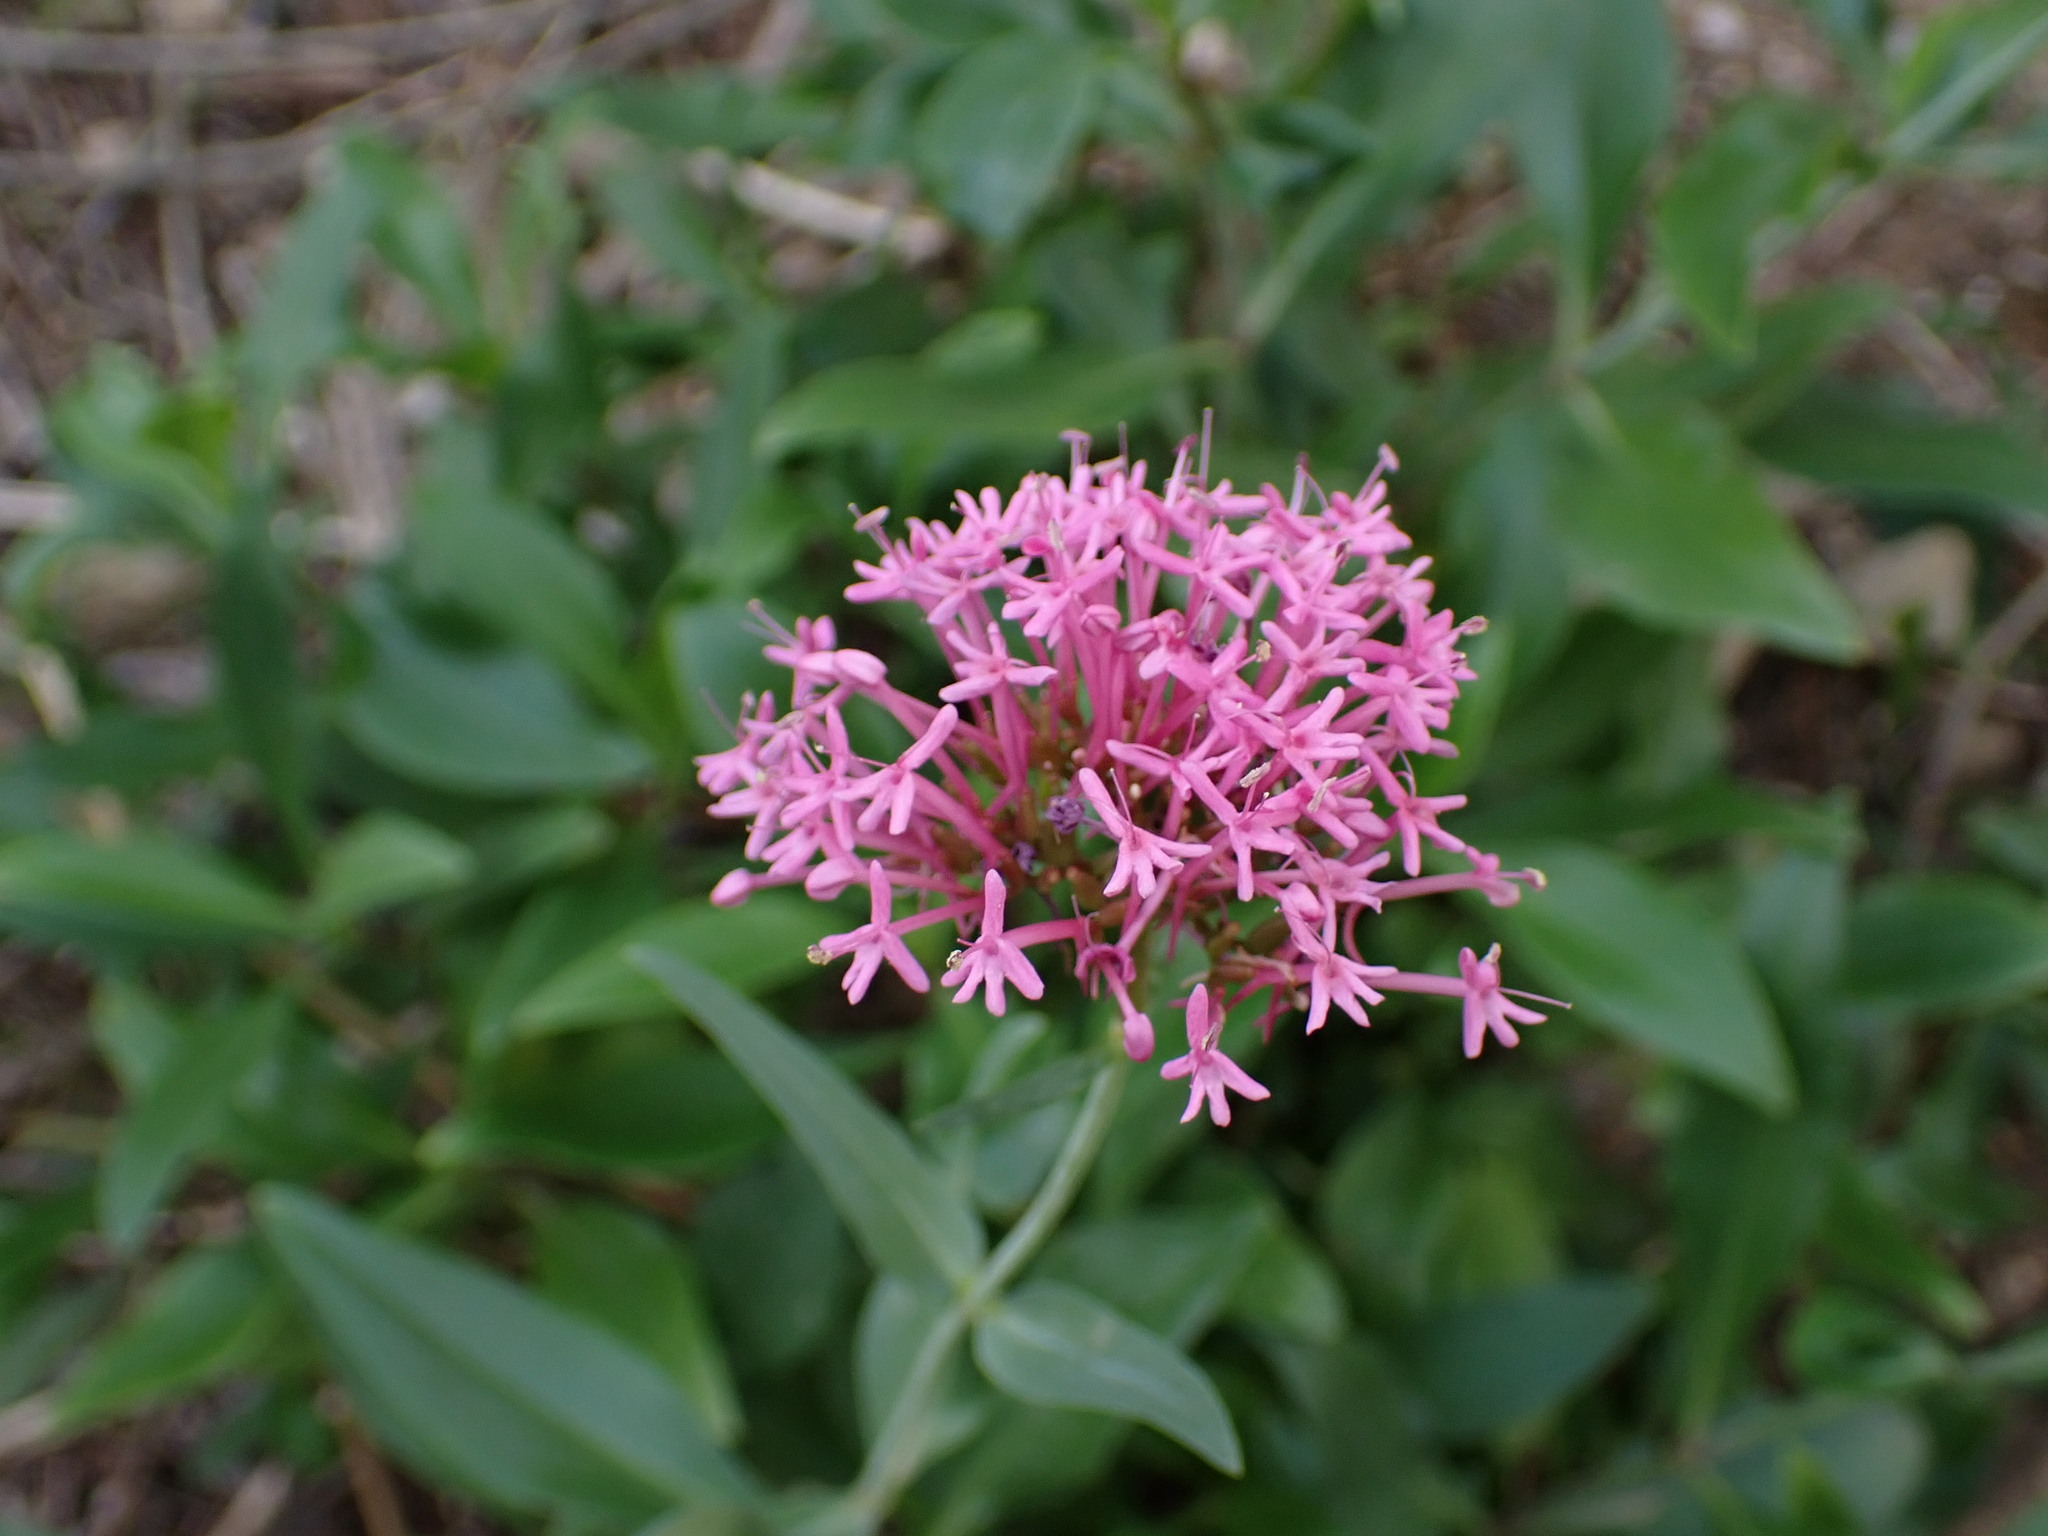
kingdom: Plantae
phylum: Tracheophyta
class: Magnoliopsida
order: Dipsacales
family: Caprifoliaceae
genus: Centranthus
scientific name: Centranthus ruber
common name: Red valerian
